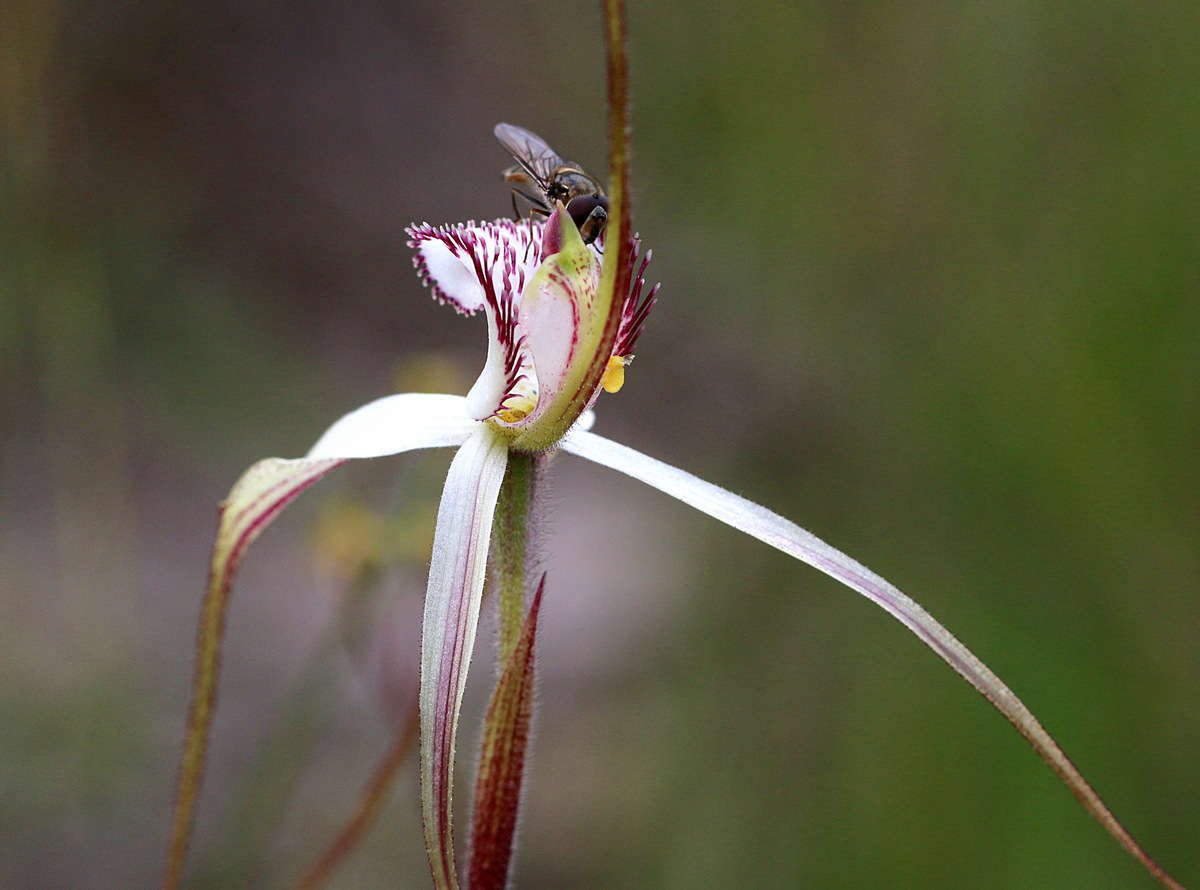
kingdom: Plantae
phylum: Tracheophyta
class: Liliopsida
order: Asparagales
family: Orchidaceae
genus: Caladenia
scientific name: Caladenia venusta
